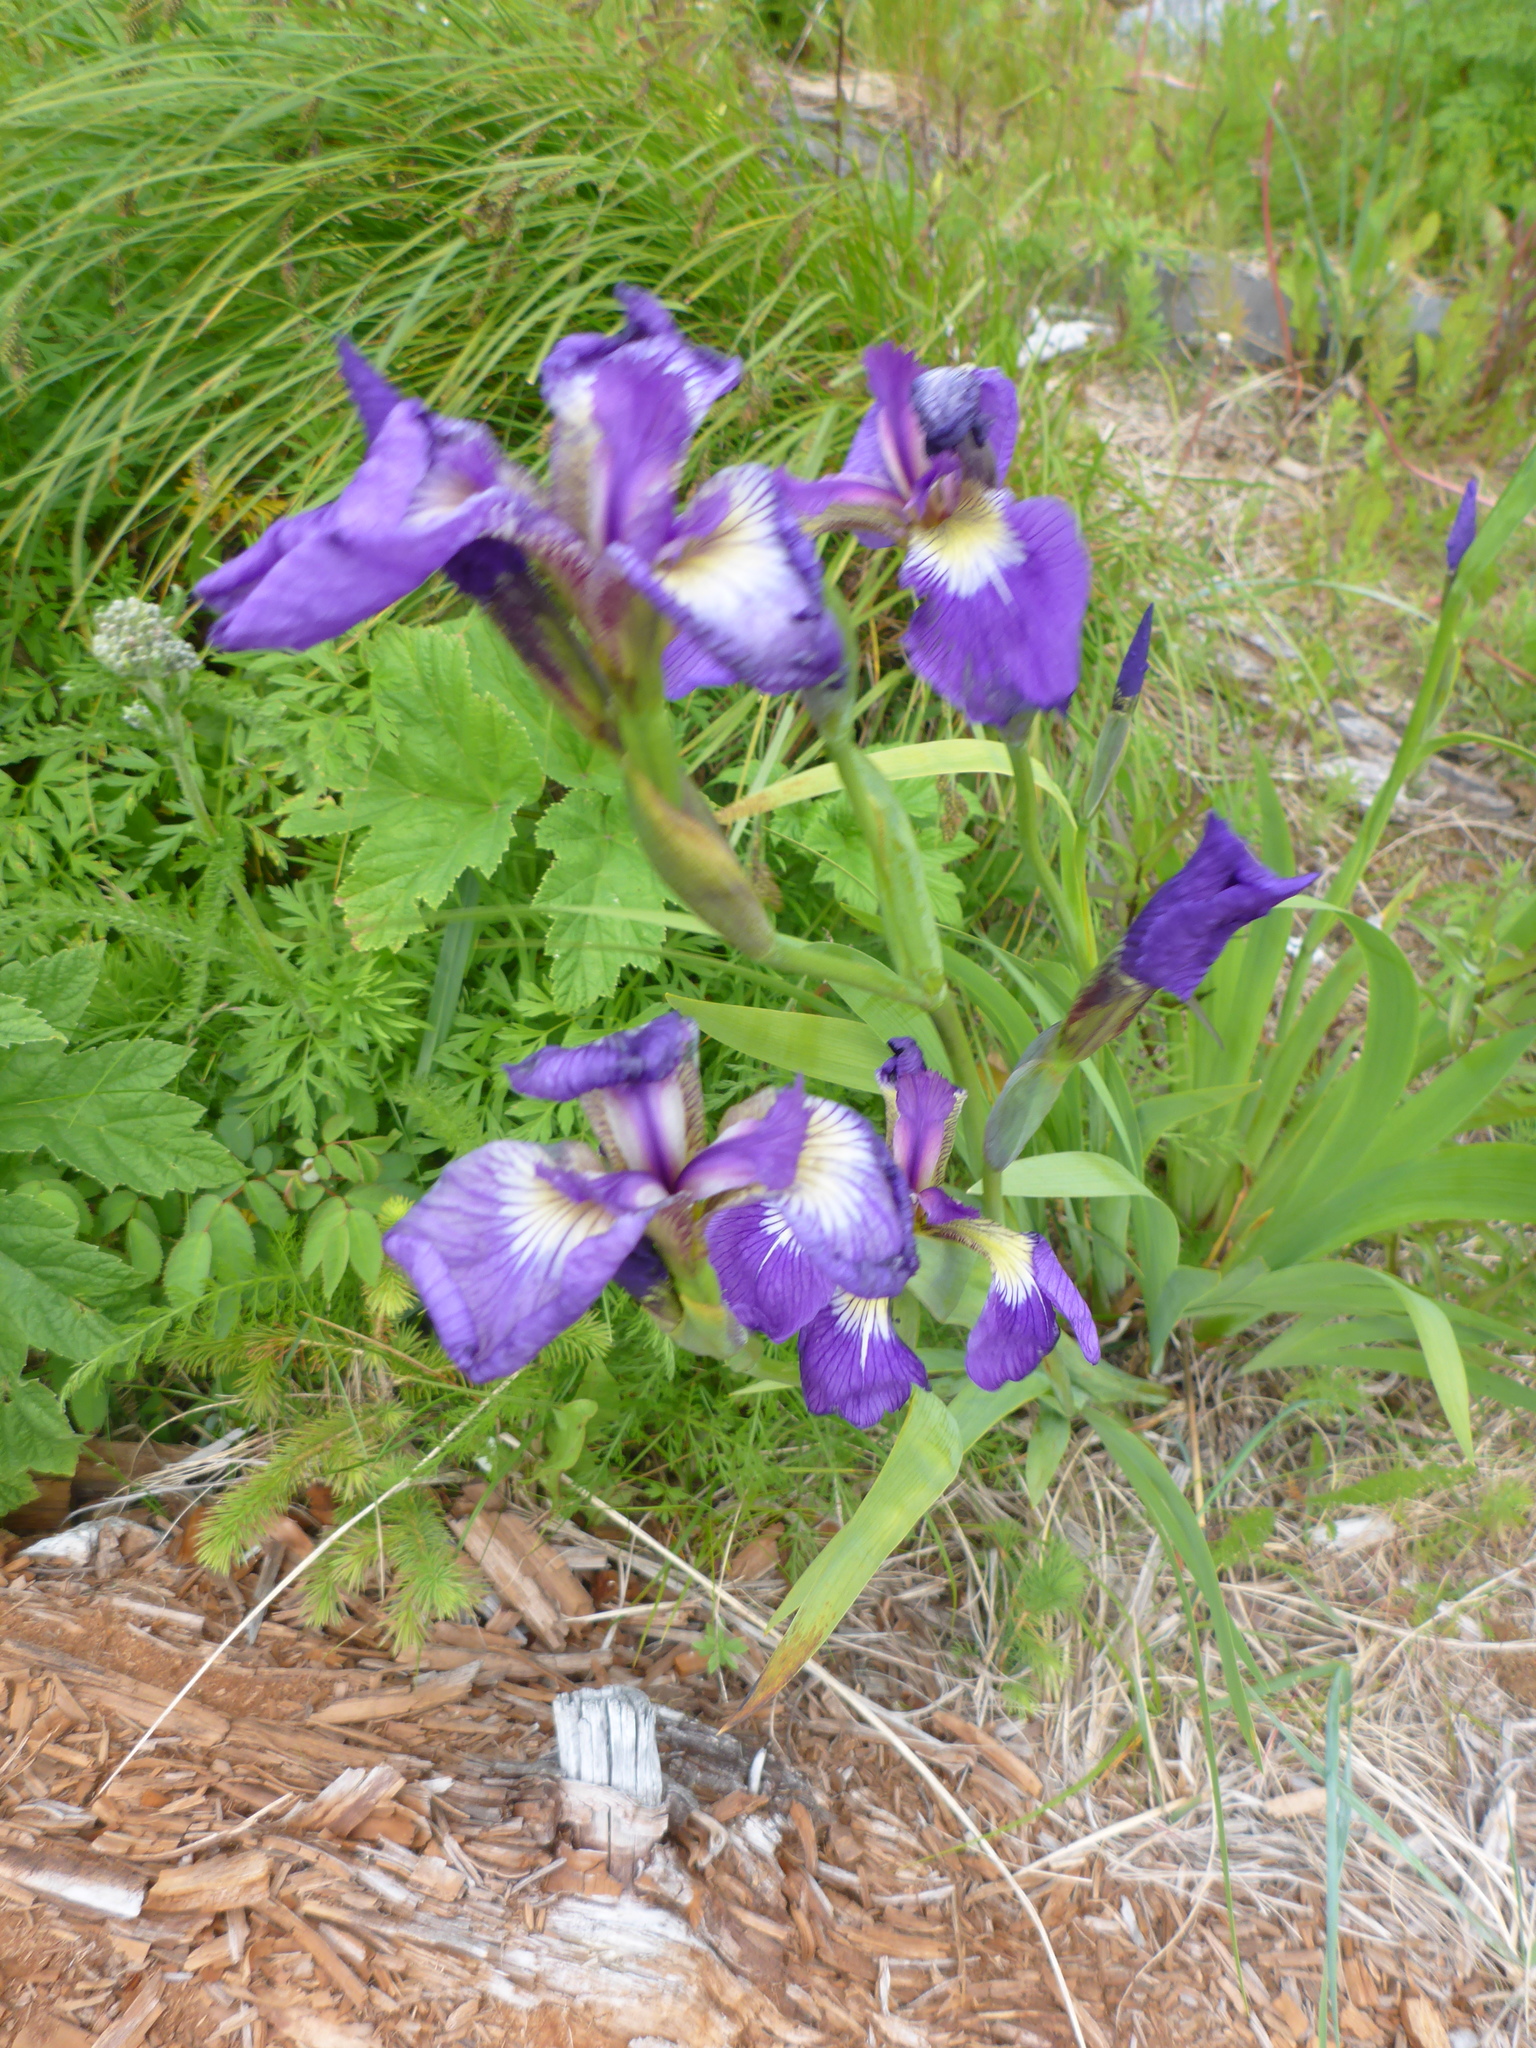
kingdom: Plantae
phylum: Tracheophyta
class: Liliopsida
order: Asparagales
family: Iridaceae
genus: Iris
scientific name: Iris setosa
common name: Arctic blue flag
